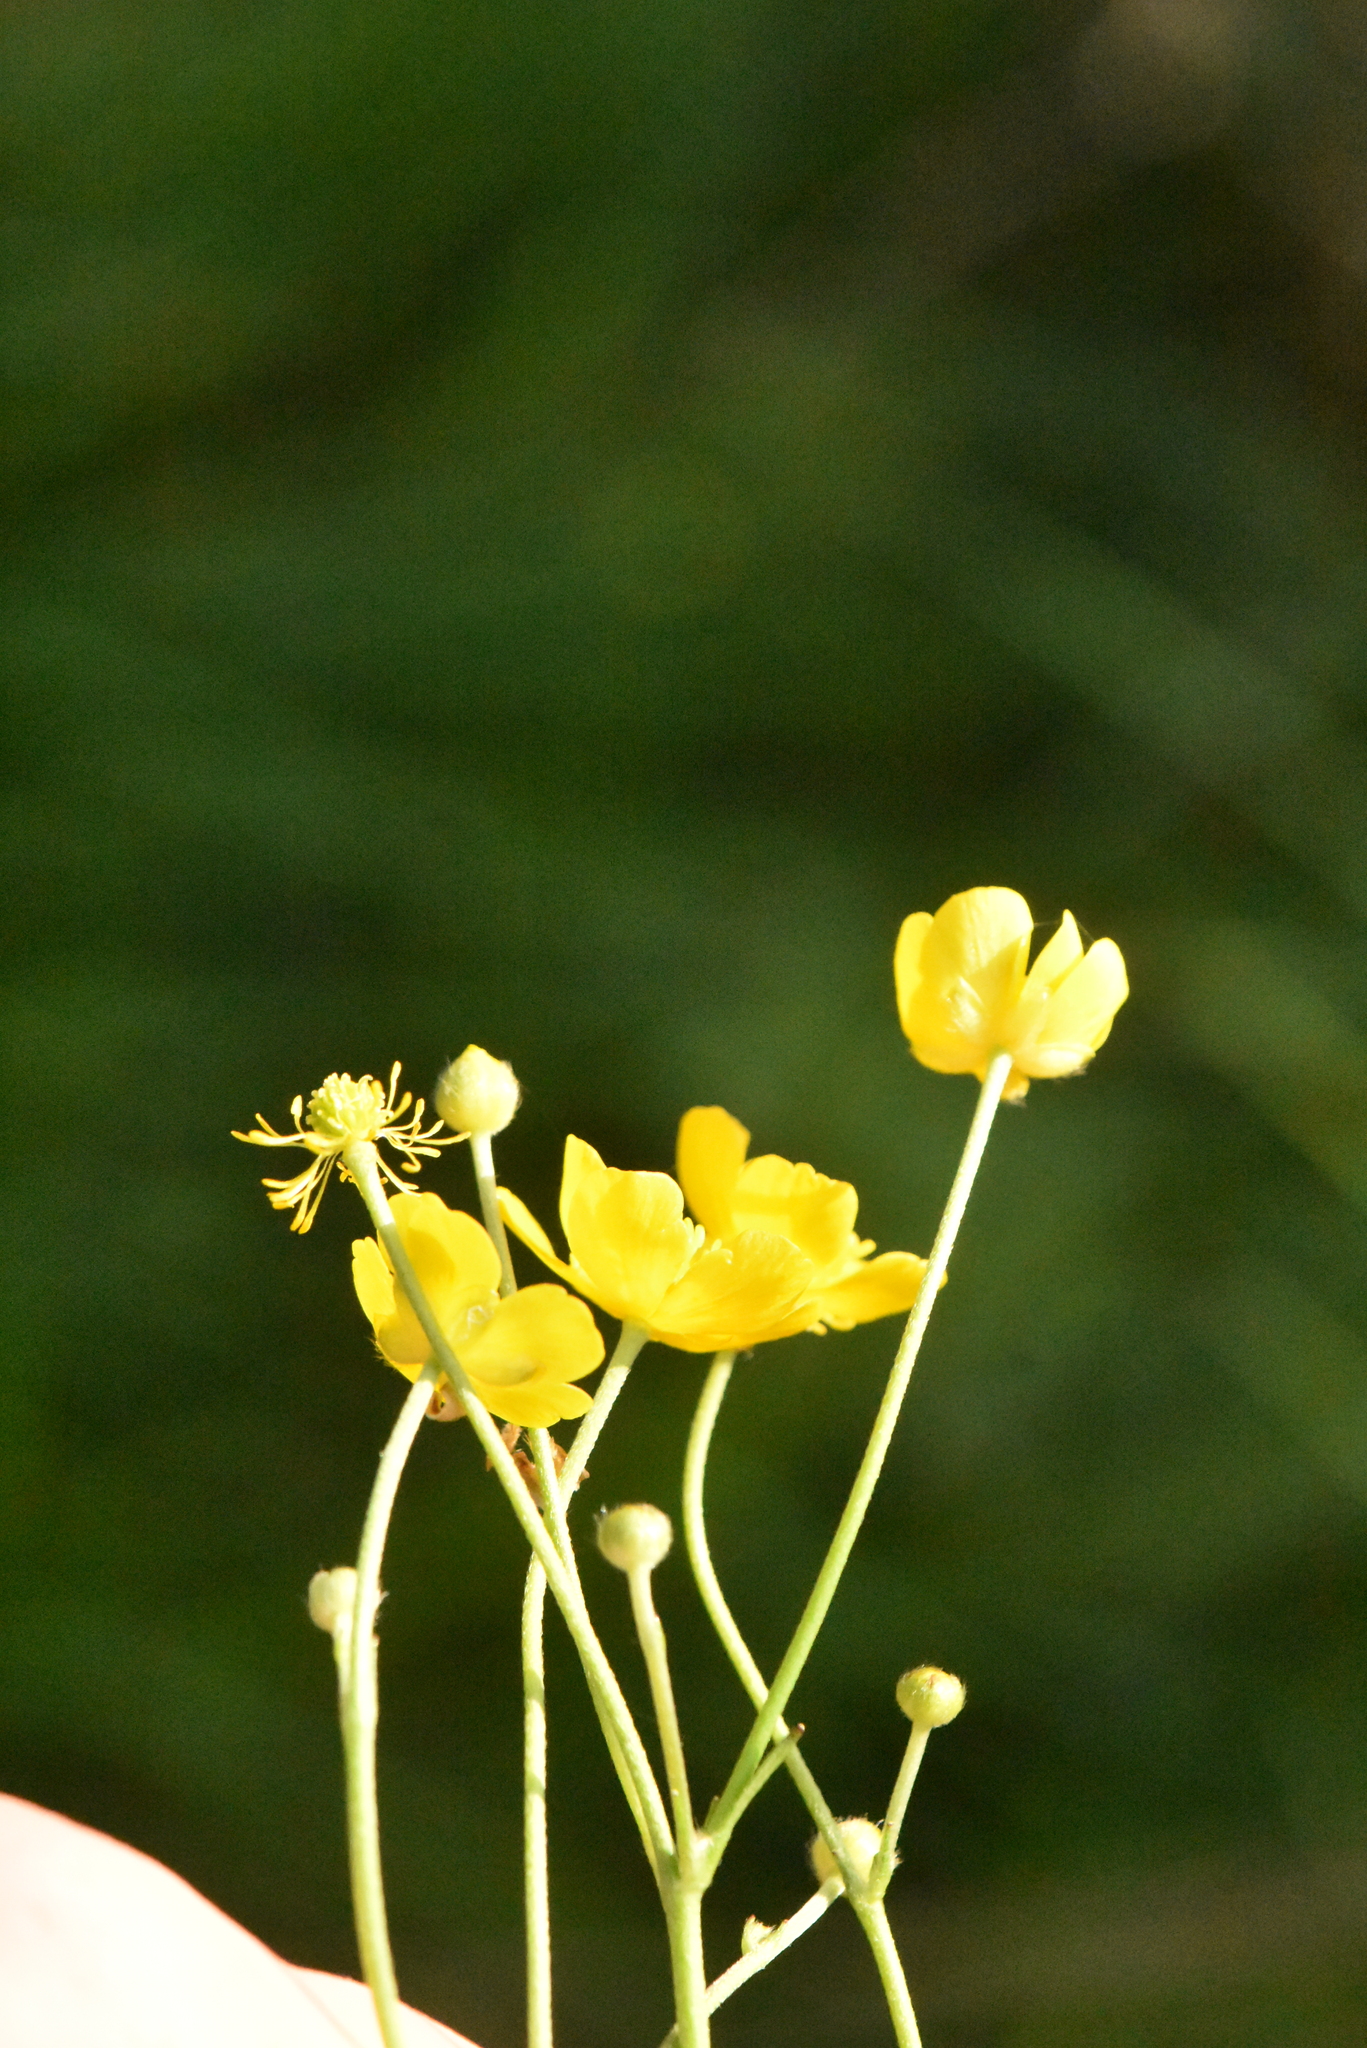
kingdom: Plantae
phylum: Tracheophyta
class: Magnoliopsida
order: Ranunculales
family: Ranunculaceae
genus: Ranunculus
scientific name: Ranunculus acris
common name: Meadow buttercup
